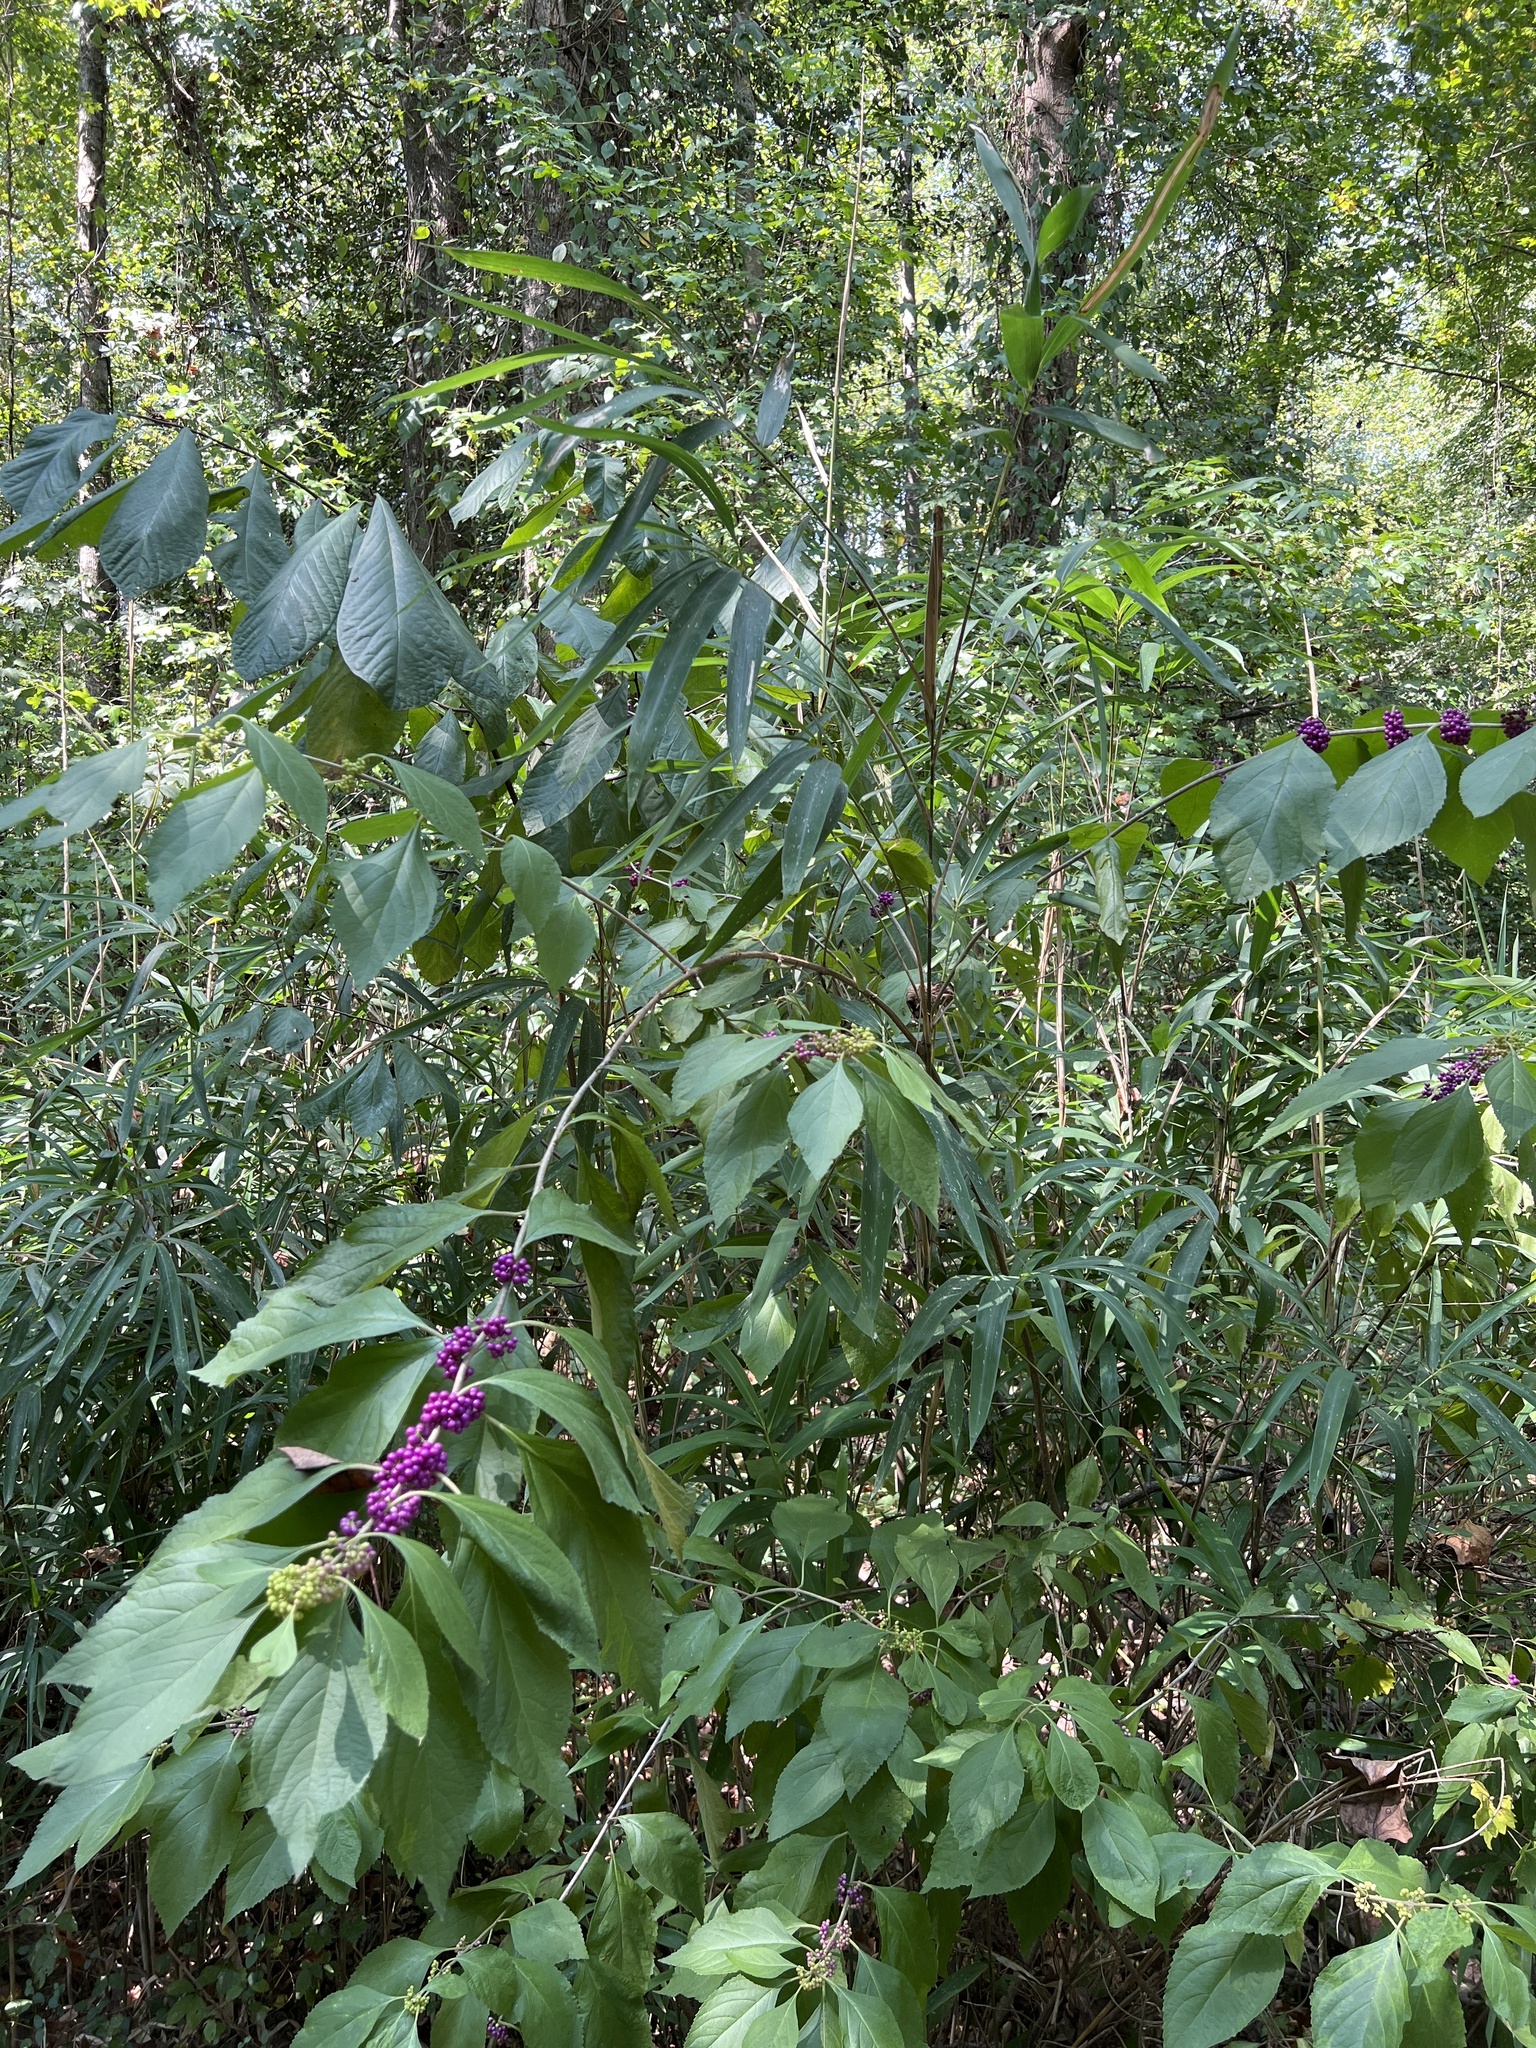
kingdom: Plantae
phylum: Tracheophyta
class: Magnoliopsida
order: Lamiales
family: Lamiaceae
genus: Callicarpa
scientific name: Callicarpa americana
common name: American beautyberry
